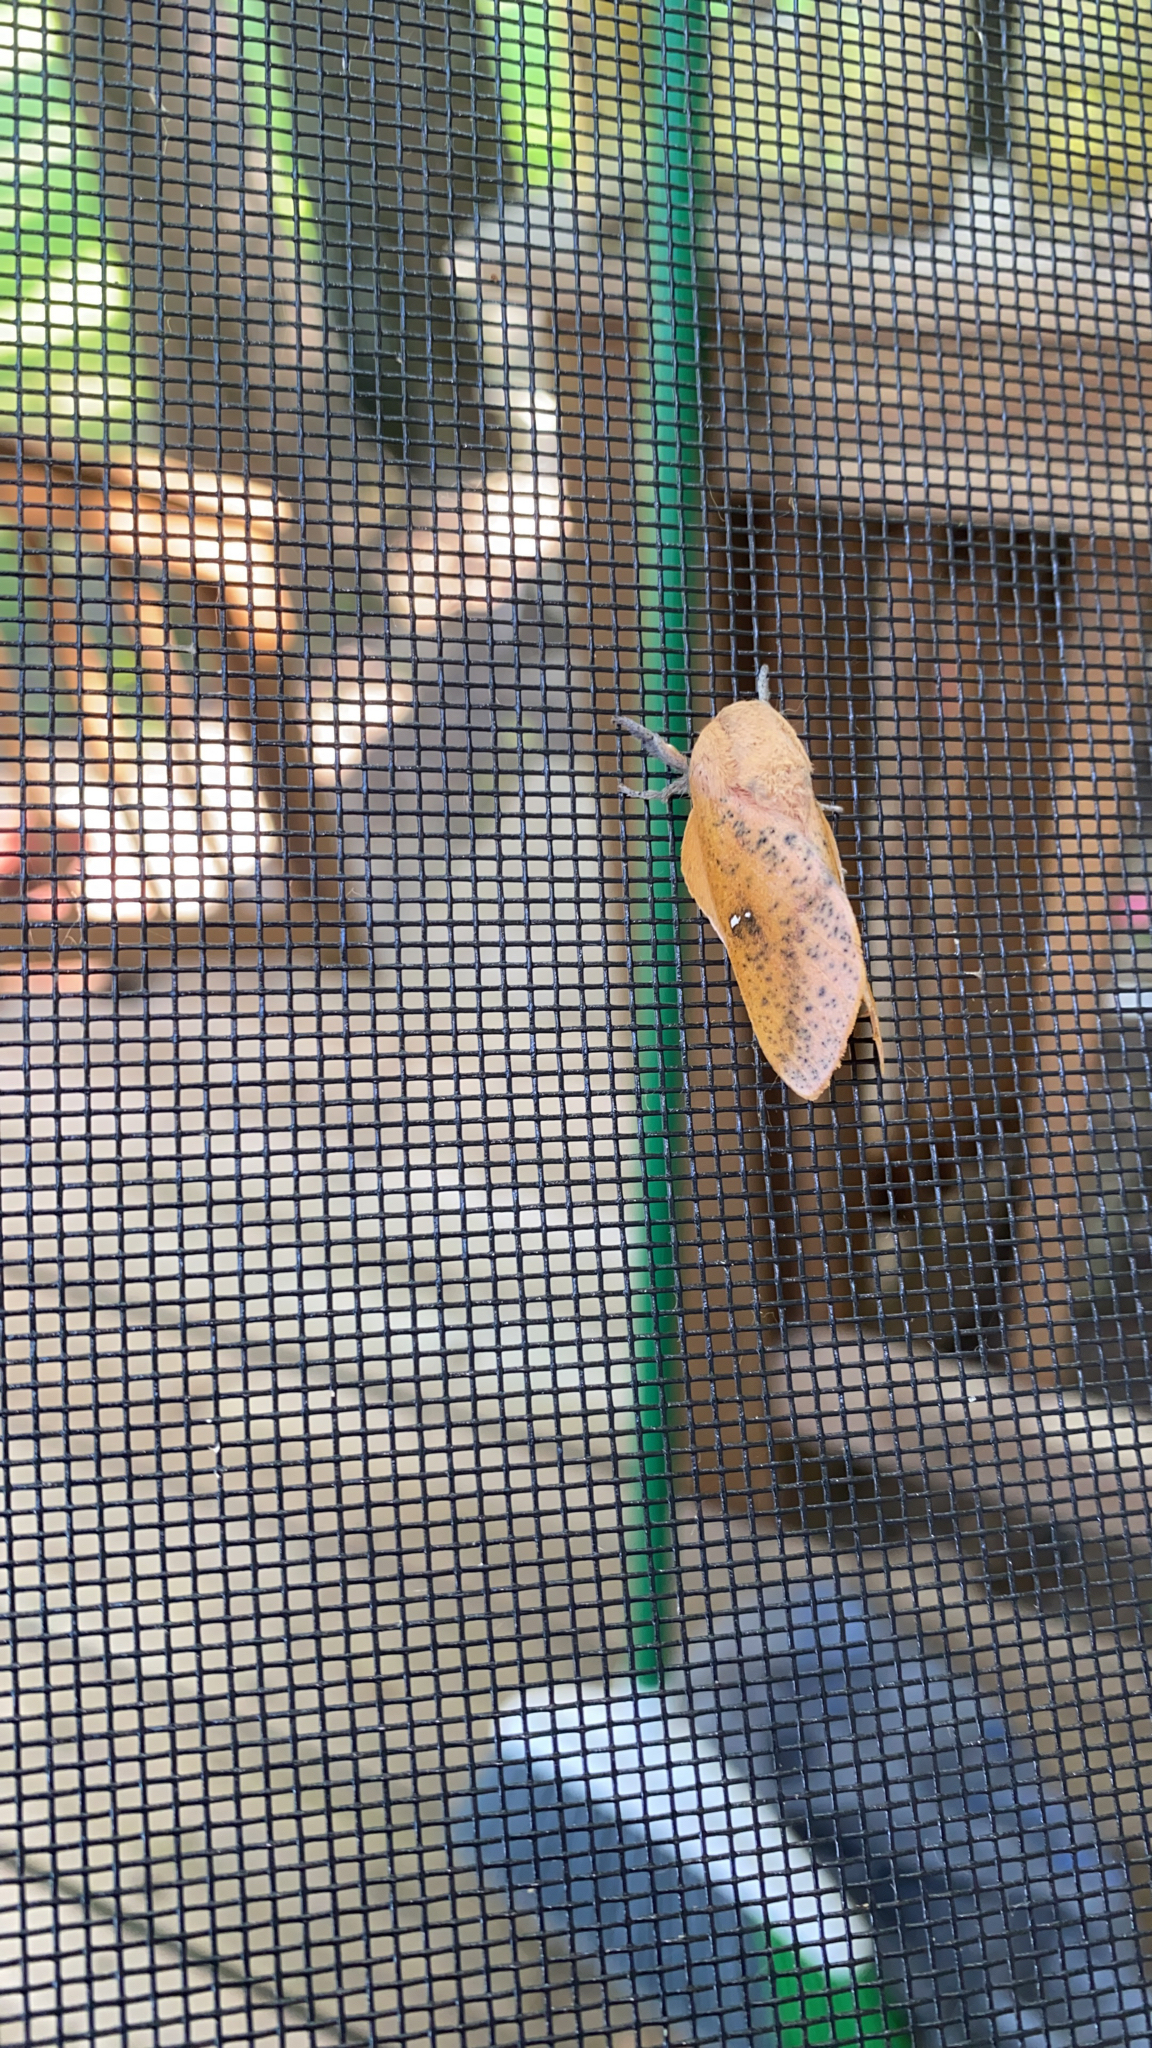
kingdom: Animalia
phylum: Arthropoda
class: Insecta
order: Lepidoptera
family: Saturniidae
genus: Syssphinx
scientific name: Syssphinx bicolor
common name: Honey locust moth
